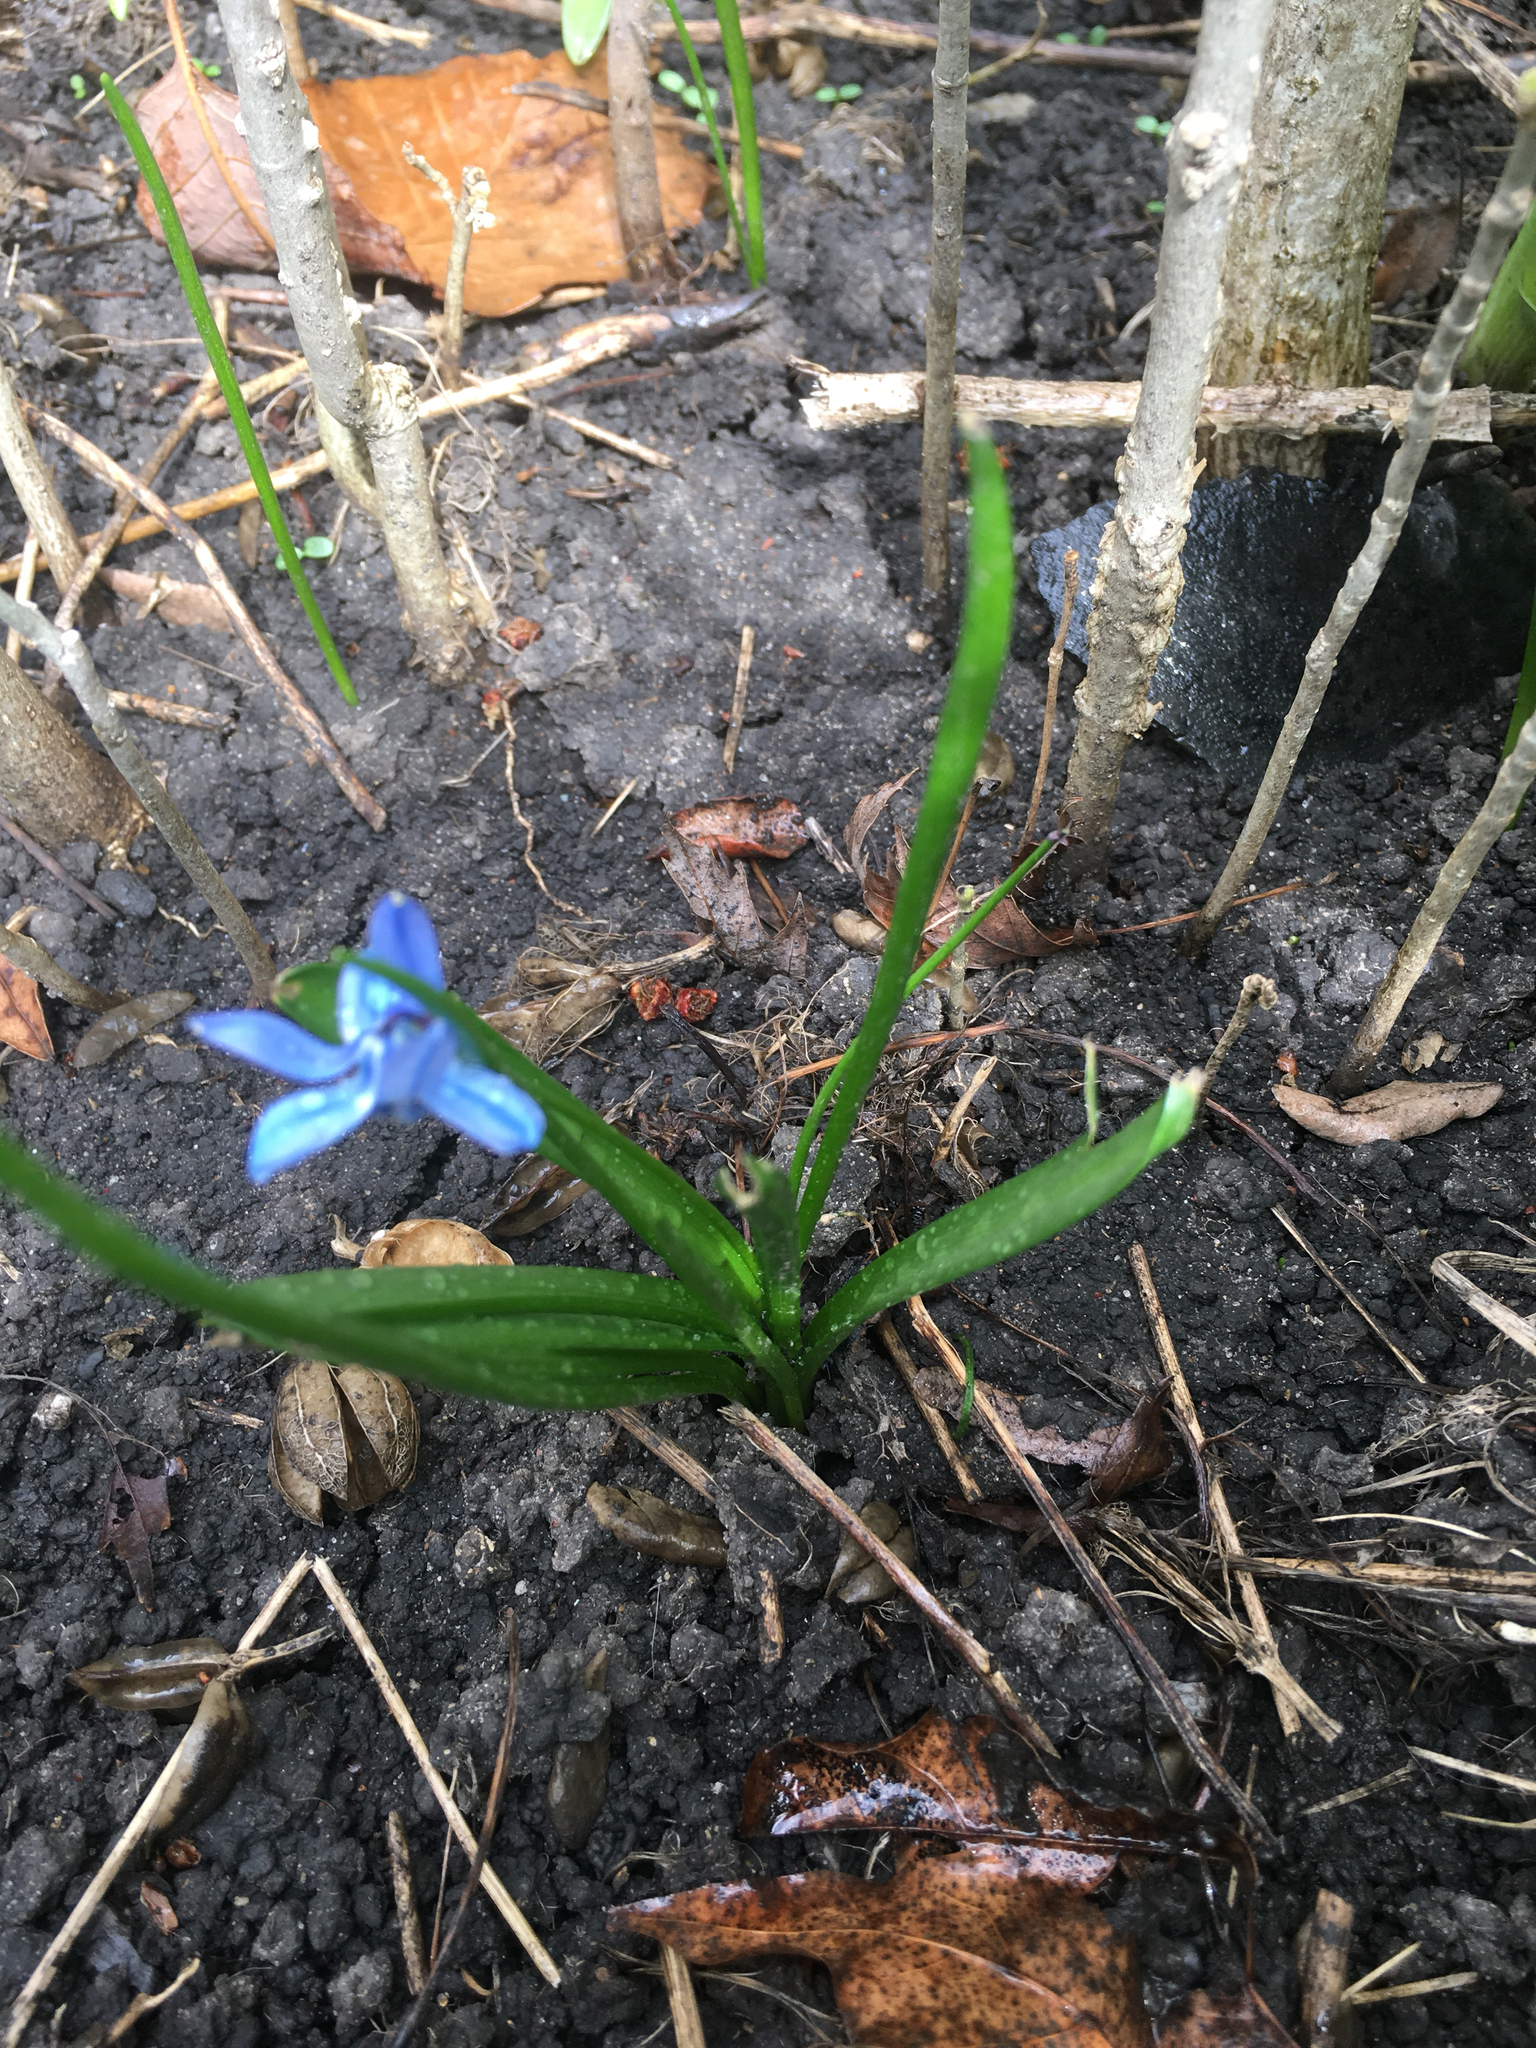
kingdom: Plantae
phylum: Tracheophyta
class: Liliopsida
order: Asparagales
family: Asparagaceae
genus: Scilla
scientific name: Scilla siberica
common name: Siberian squill
